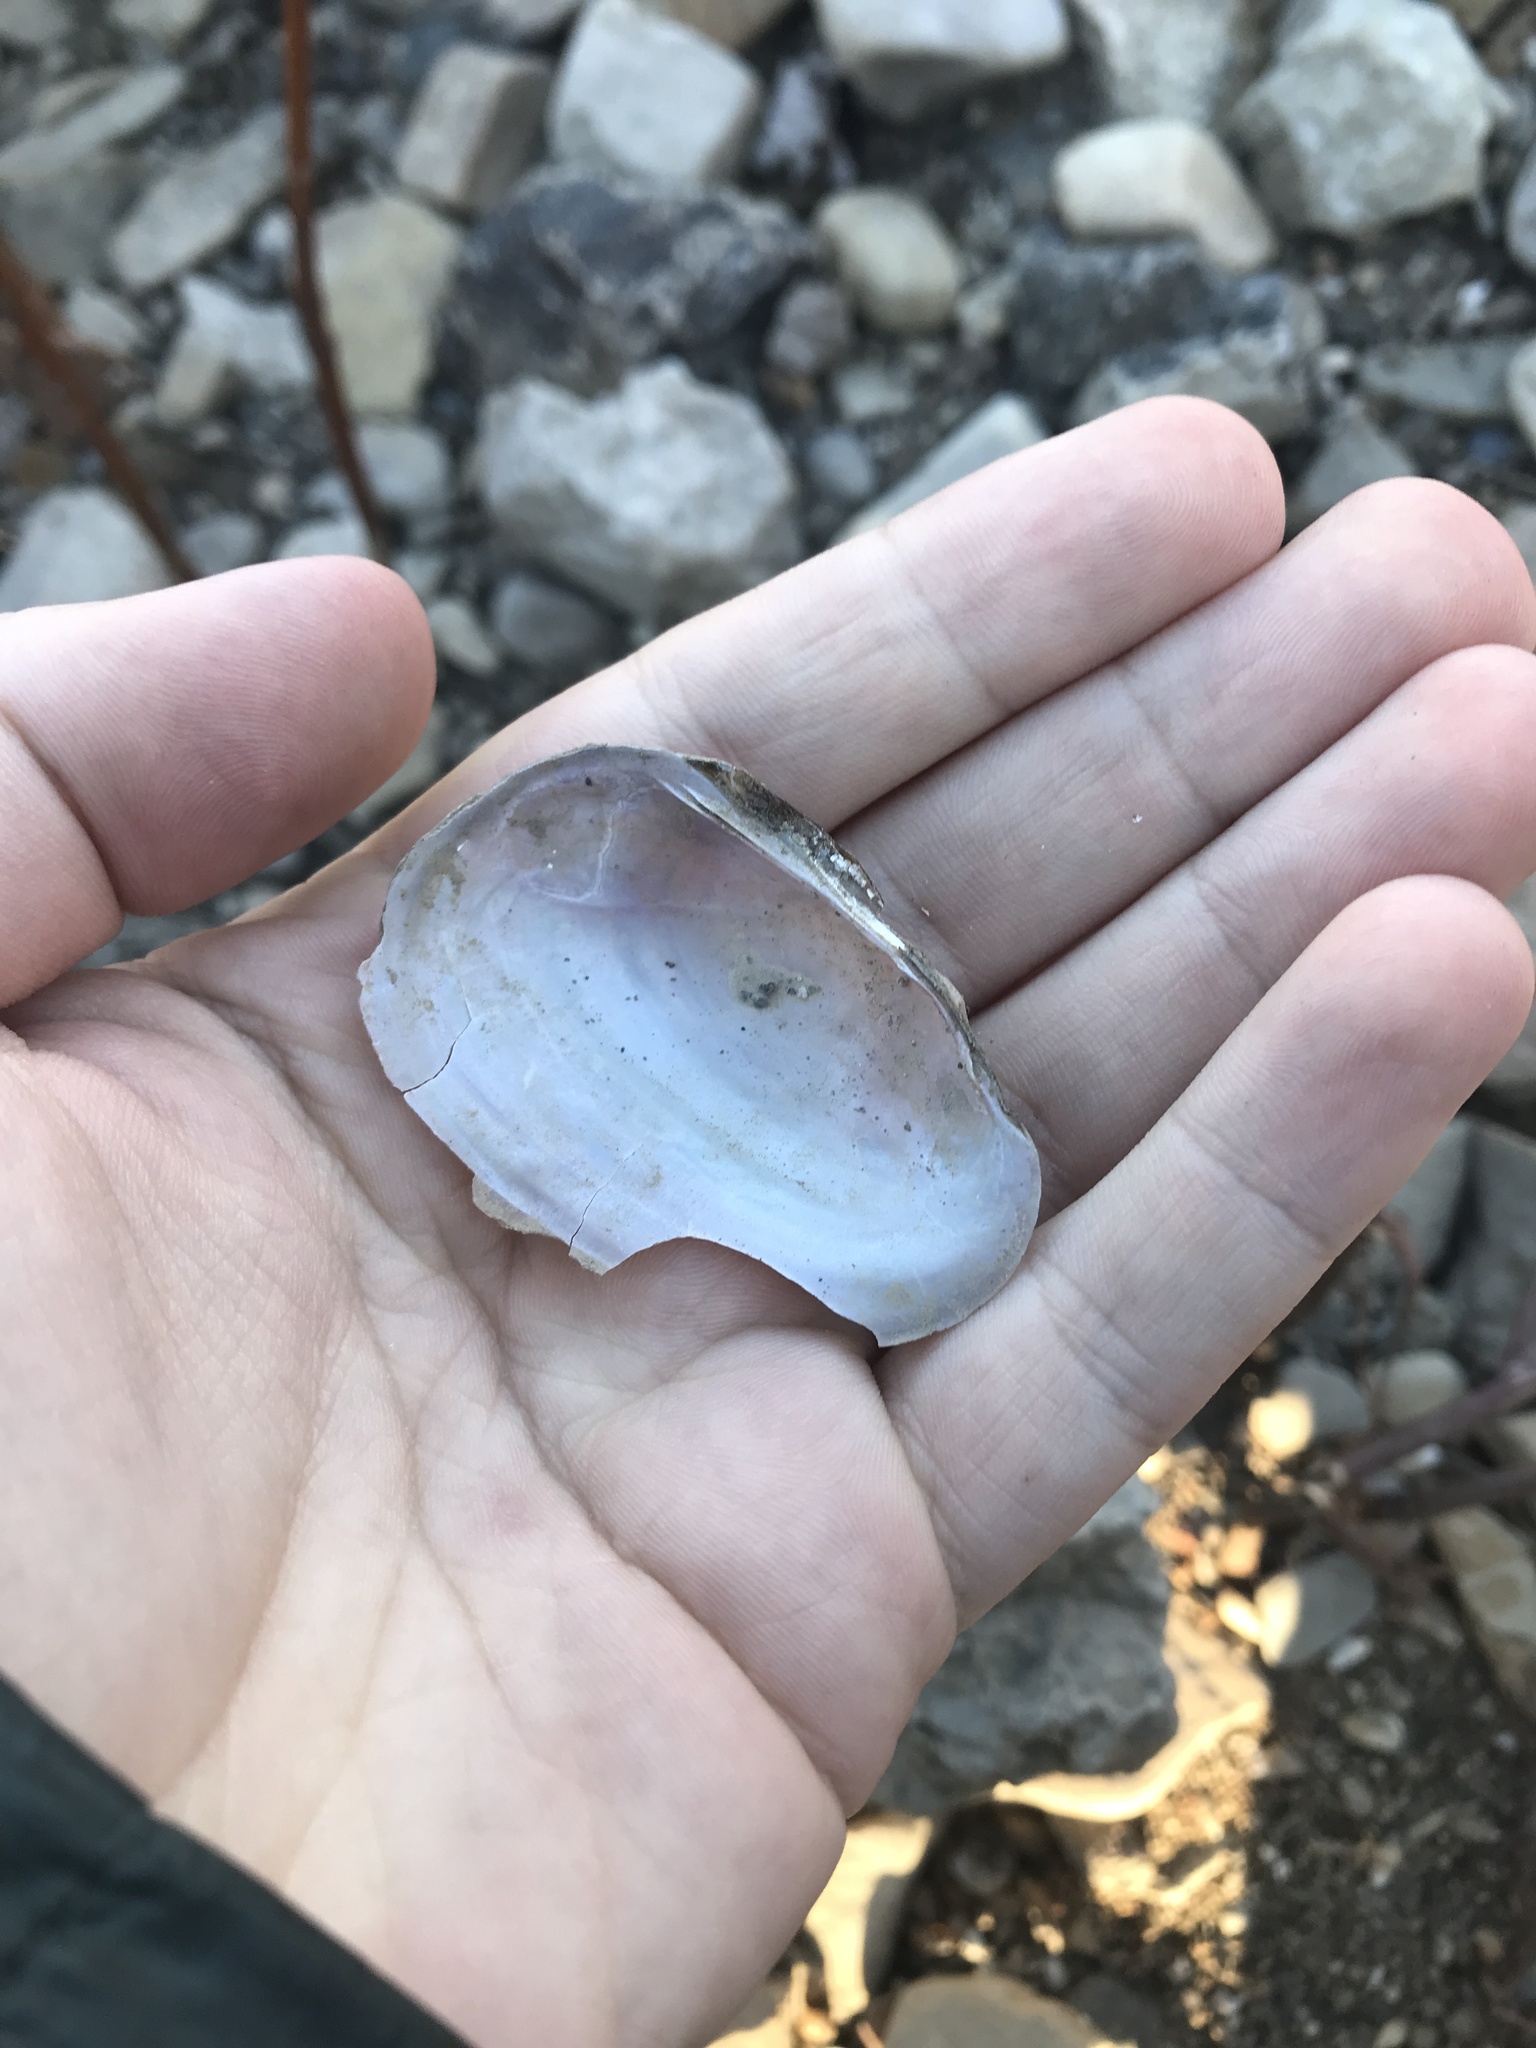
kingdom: Animalia
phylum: Mollusca
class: Bivalvia
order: Unionida
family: Unionidae
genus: Potamilus
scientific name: Potamilus fragilis
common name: Fragile papershell
